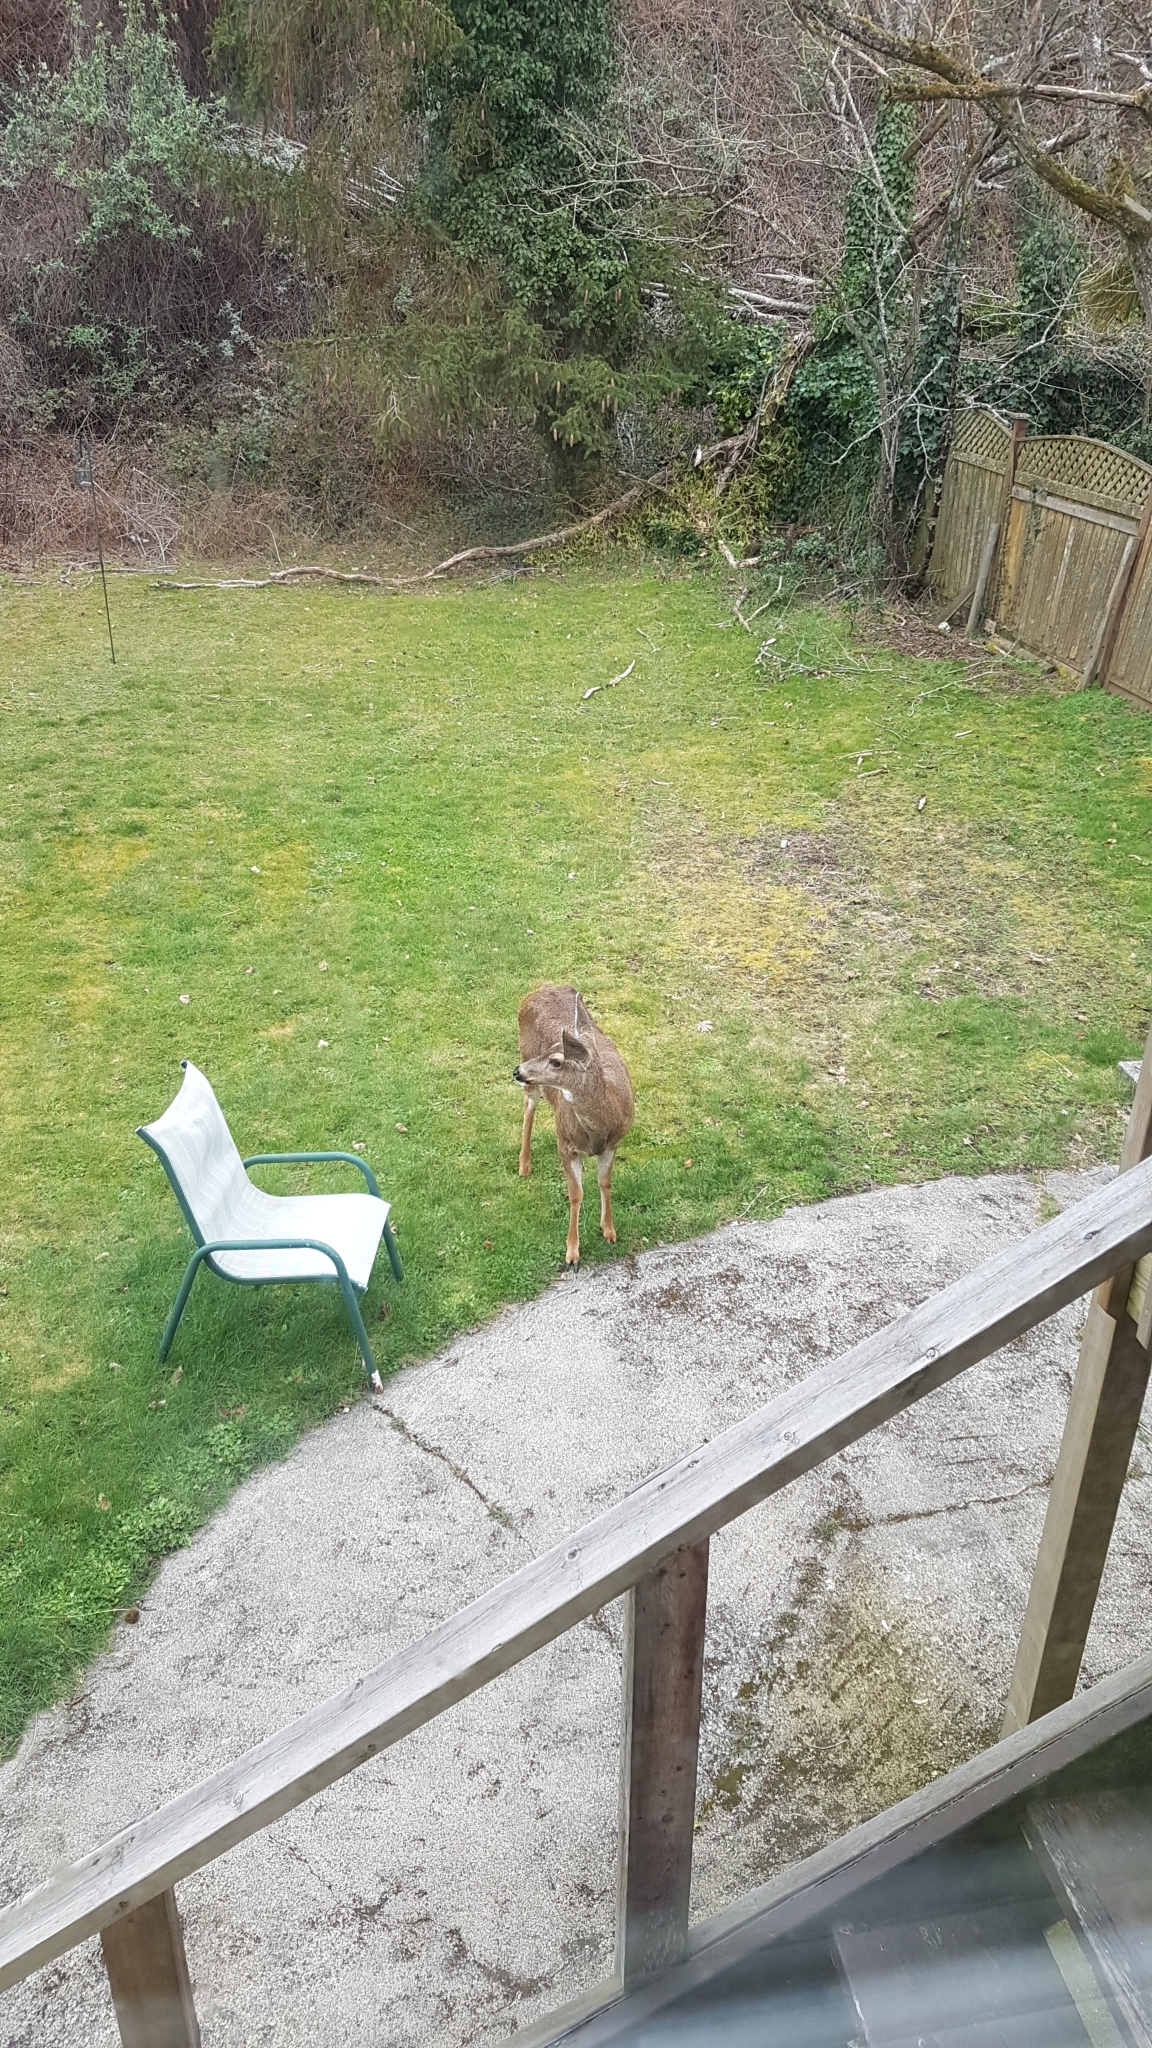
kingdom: Animalia
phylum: Chordata
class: Mammalia
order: Artiodactyla
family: Cervidae
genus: Odocoileus
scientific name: Odocoileus hemionus
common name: Mule deer
